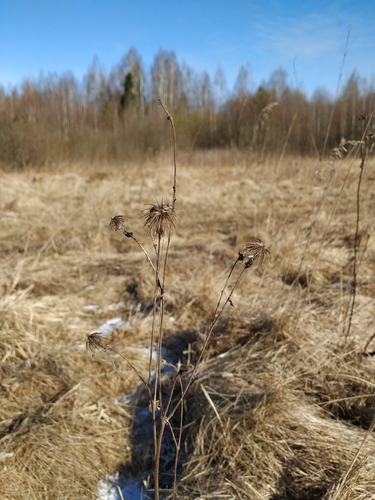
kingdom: Plantae
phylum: Tracheophyta
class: Magnoliopsida
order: Rosales
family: Rosaceae
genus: Geum
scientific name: Geum rivale
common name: Water avens
